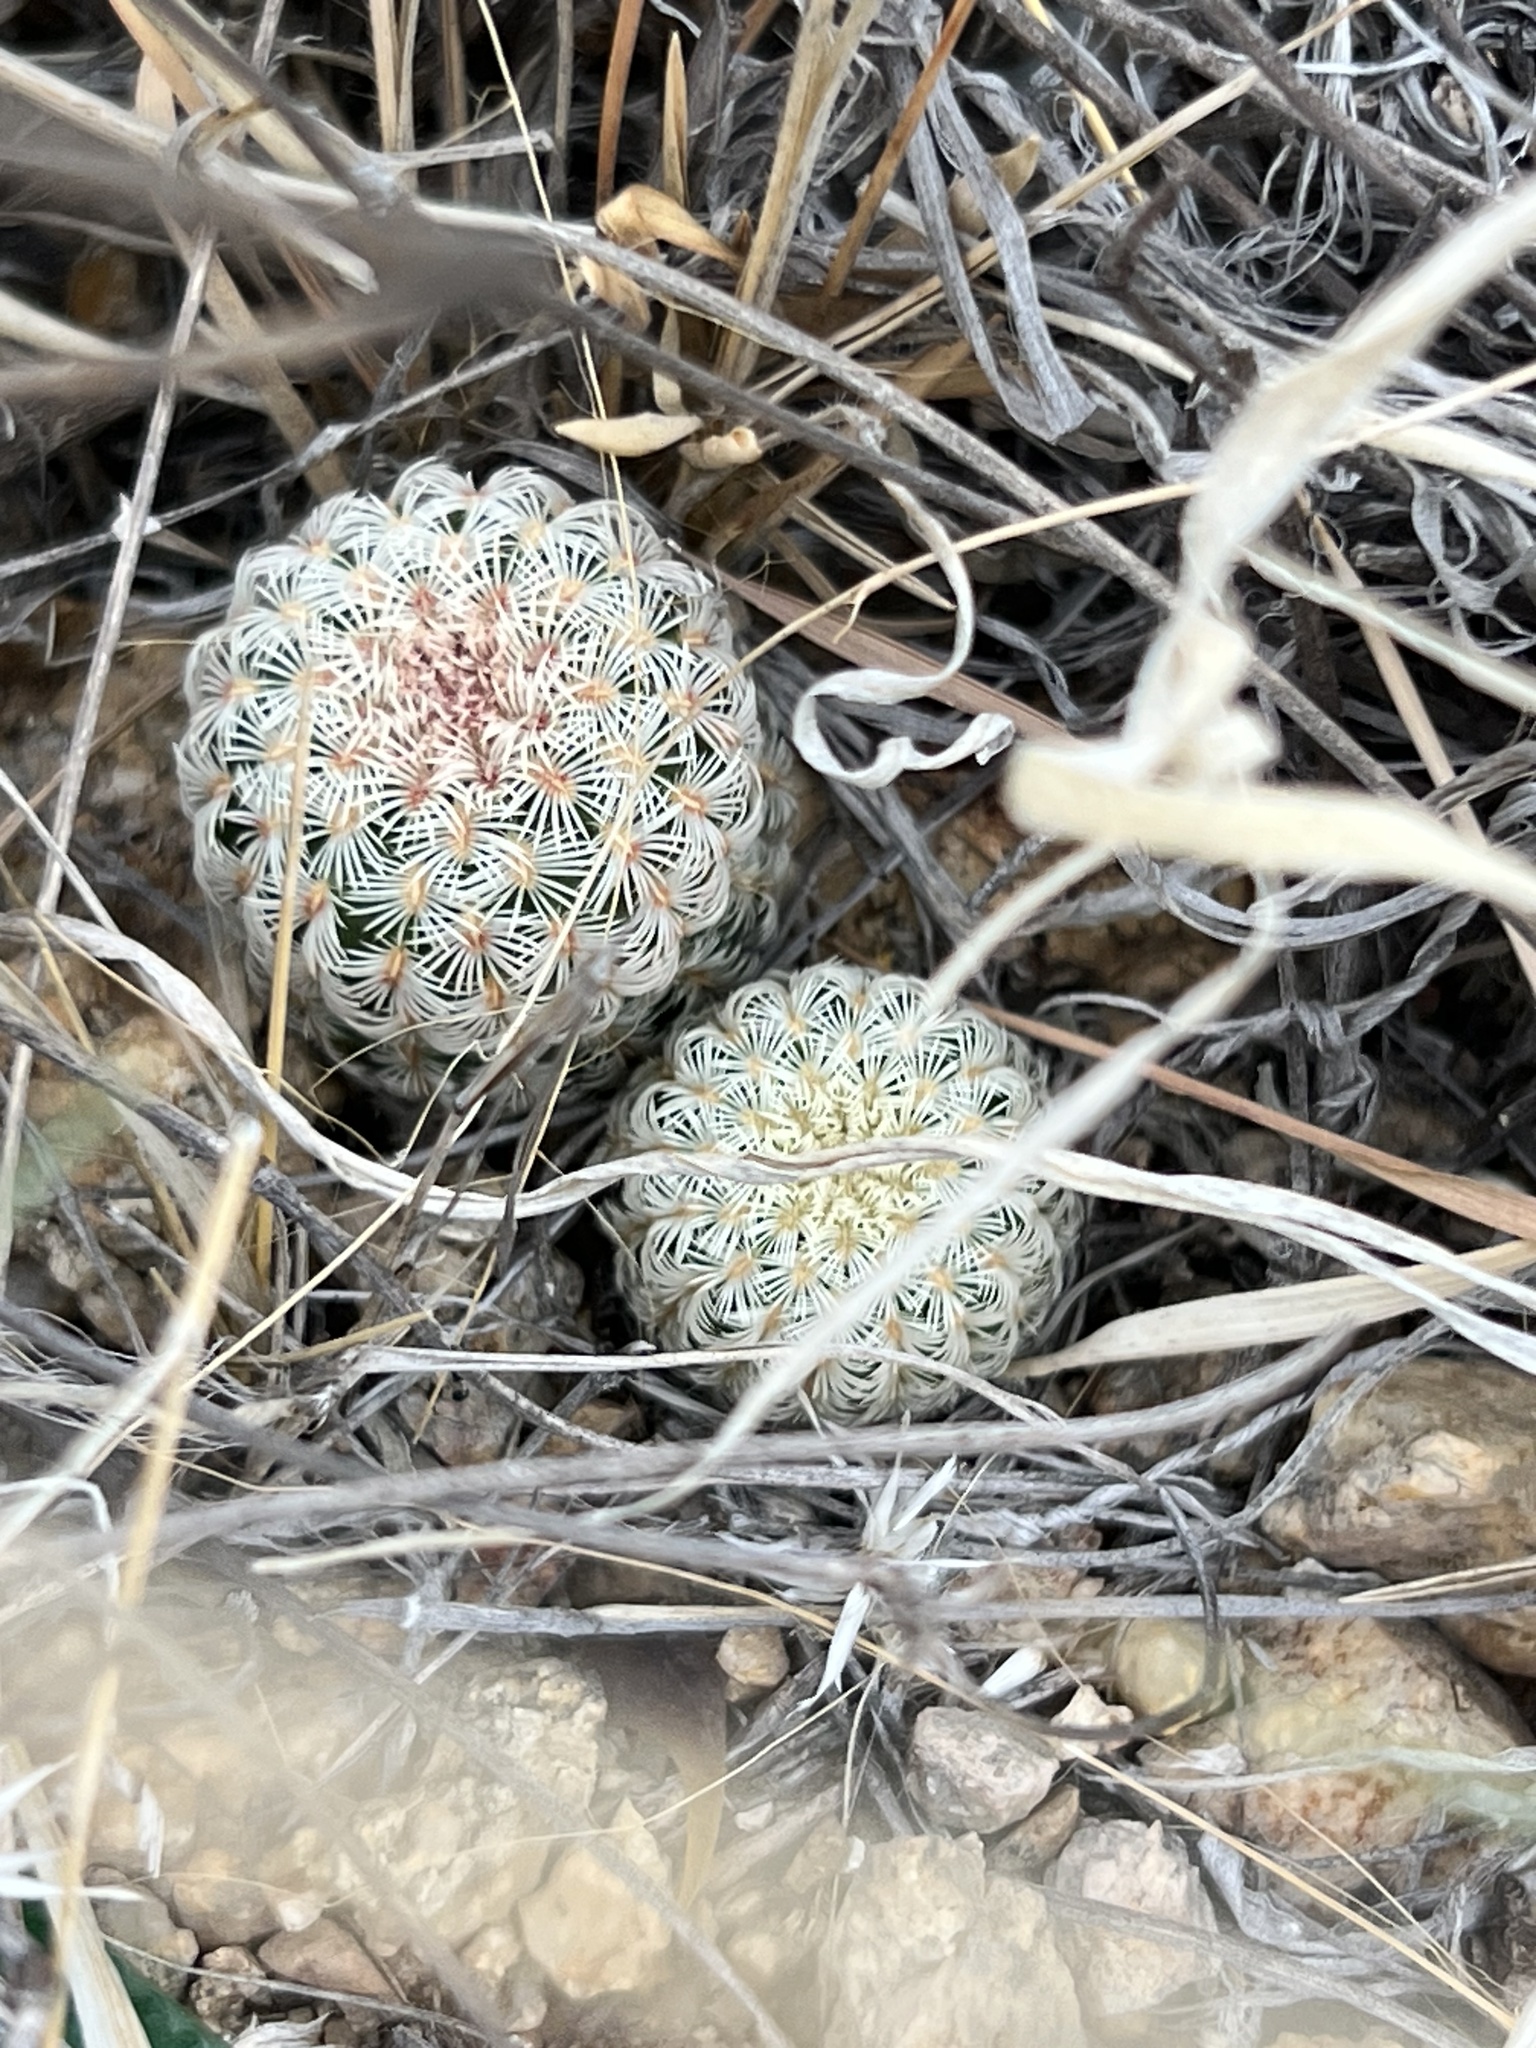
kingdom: Plantae
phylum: Tracheophyta
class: Magnoliopsida
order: Caryophyllales
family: Cactaceae
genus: Echinocereus
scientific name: Echinocereus rigidissimus
